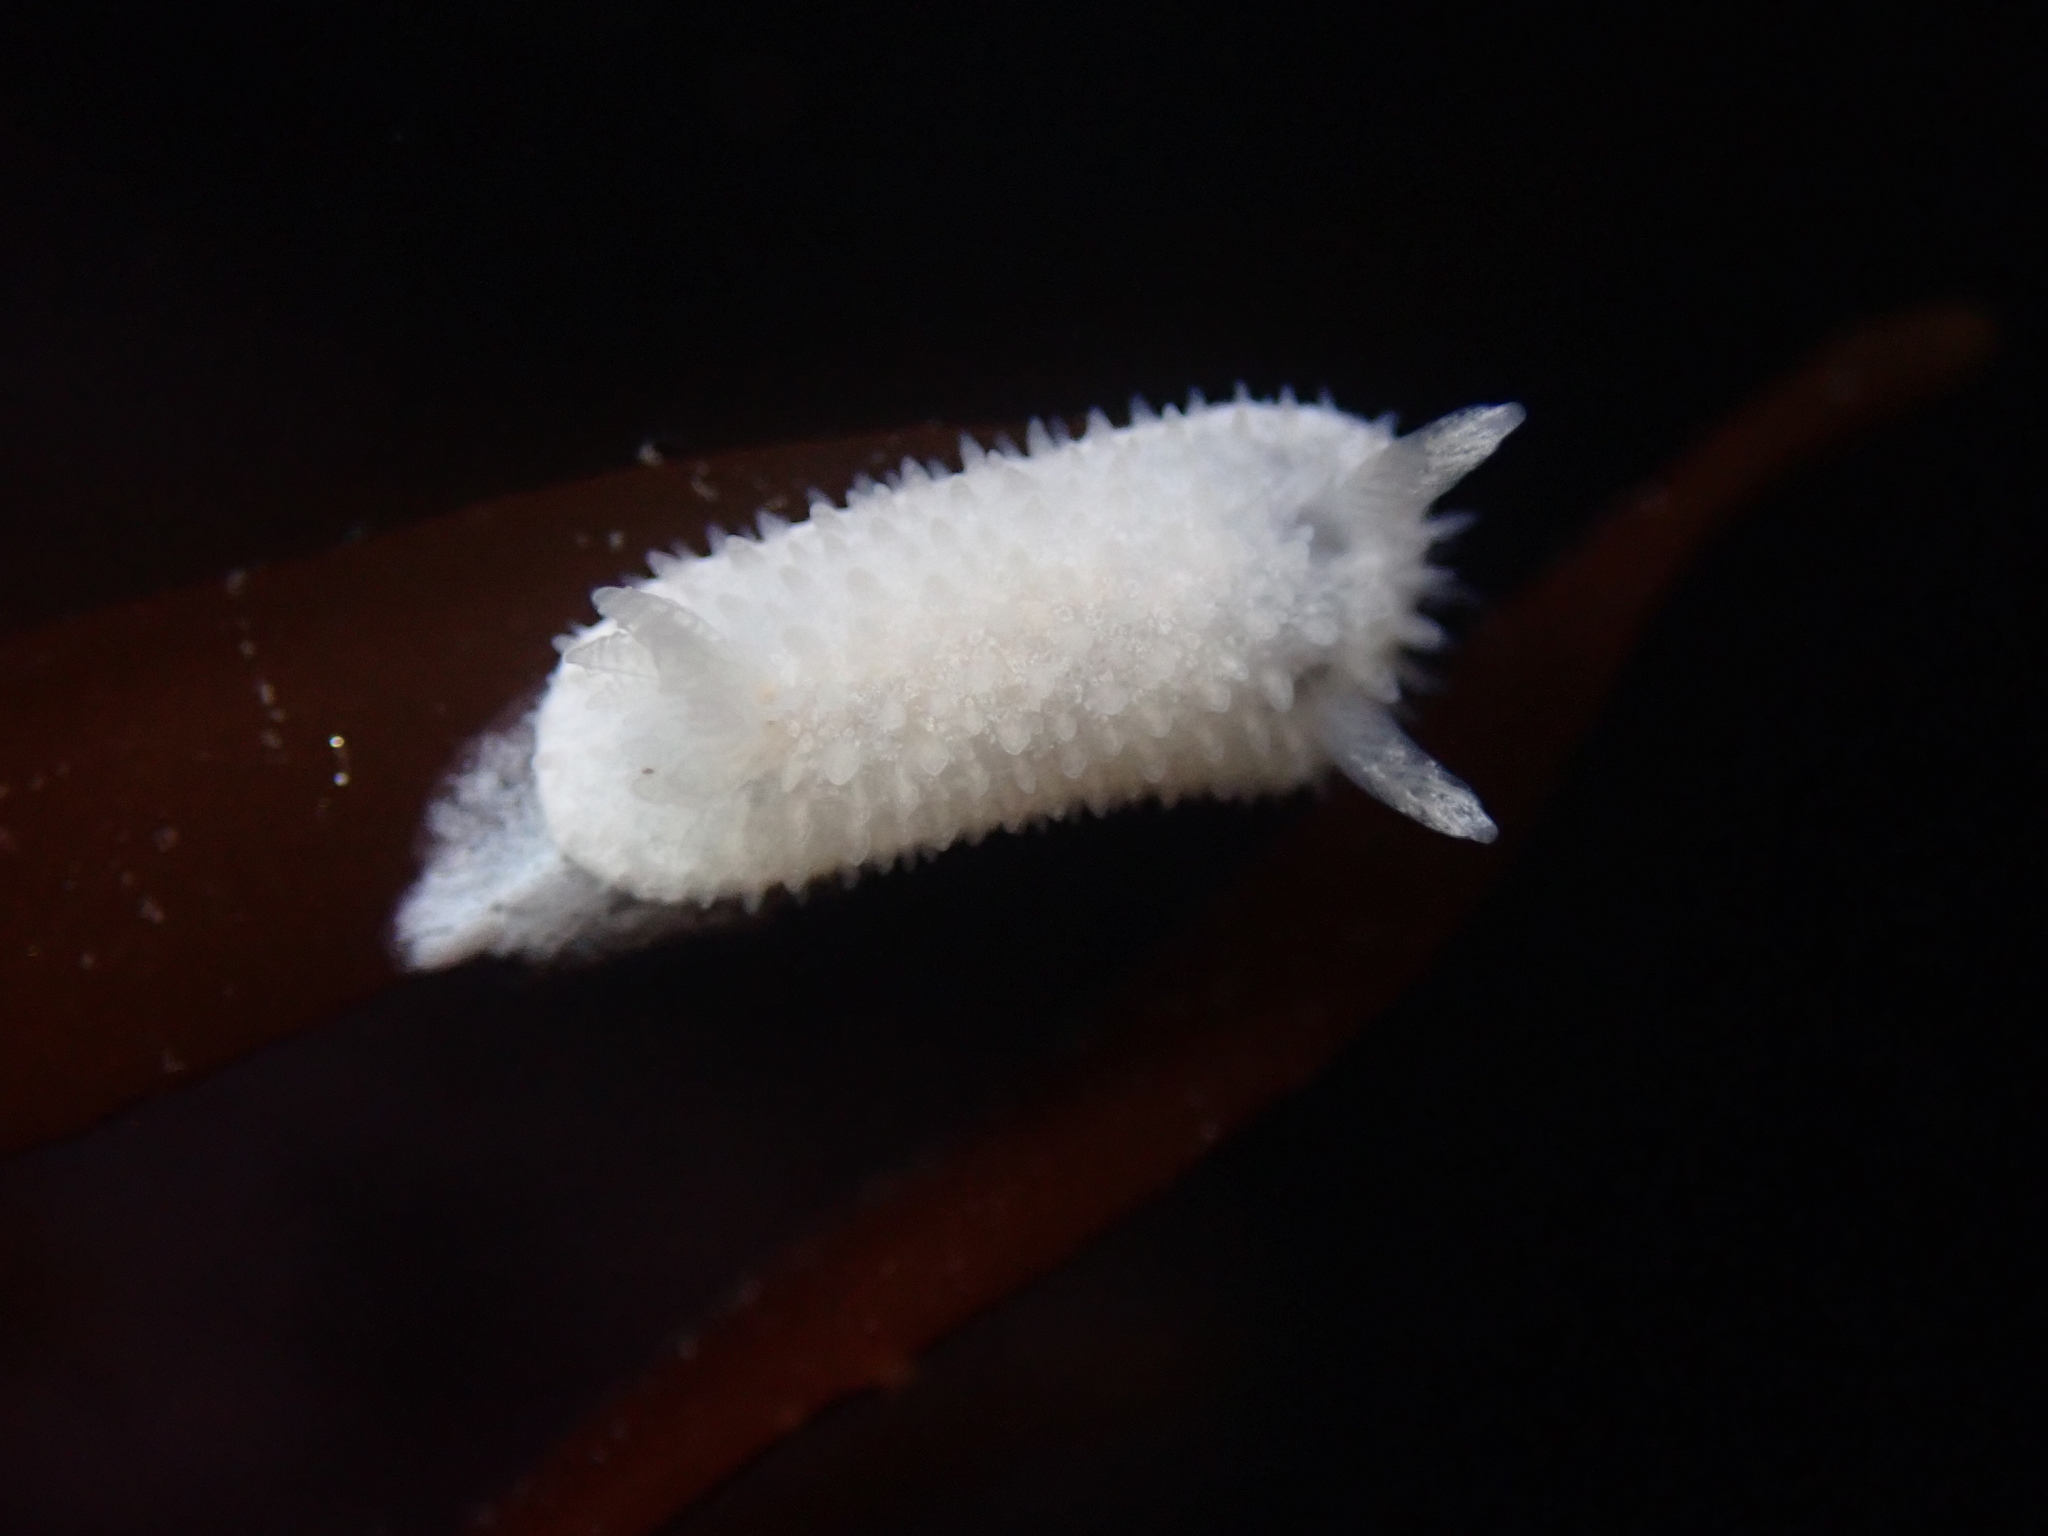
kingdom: Animalia
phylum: Mollusca
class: Gastropoda
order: Nudibranchia
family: Calycidorididae
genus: Diaphorodoris
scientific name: Diaphorodoris lirulatocauda
